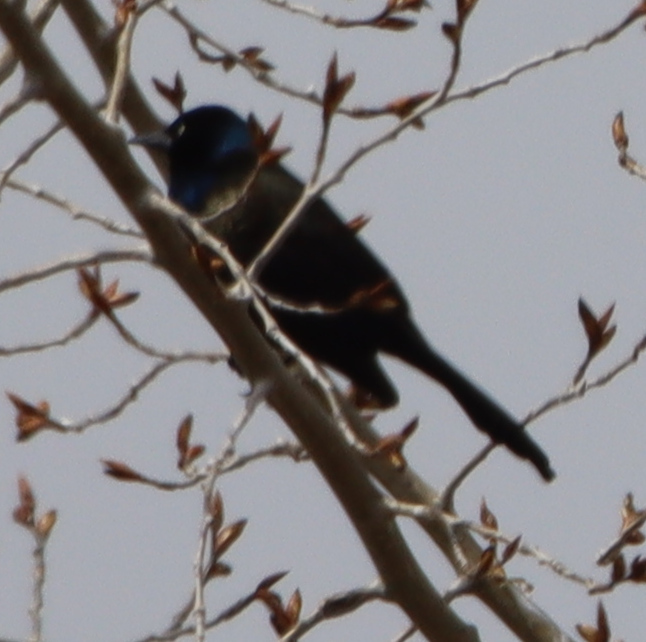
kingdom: Animalia
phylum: Chordata
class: Aves
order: Passeriformes
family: Icteridae
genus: Quiscalus
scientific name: Quiscalus quiscula
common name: Common grackle
